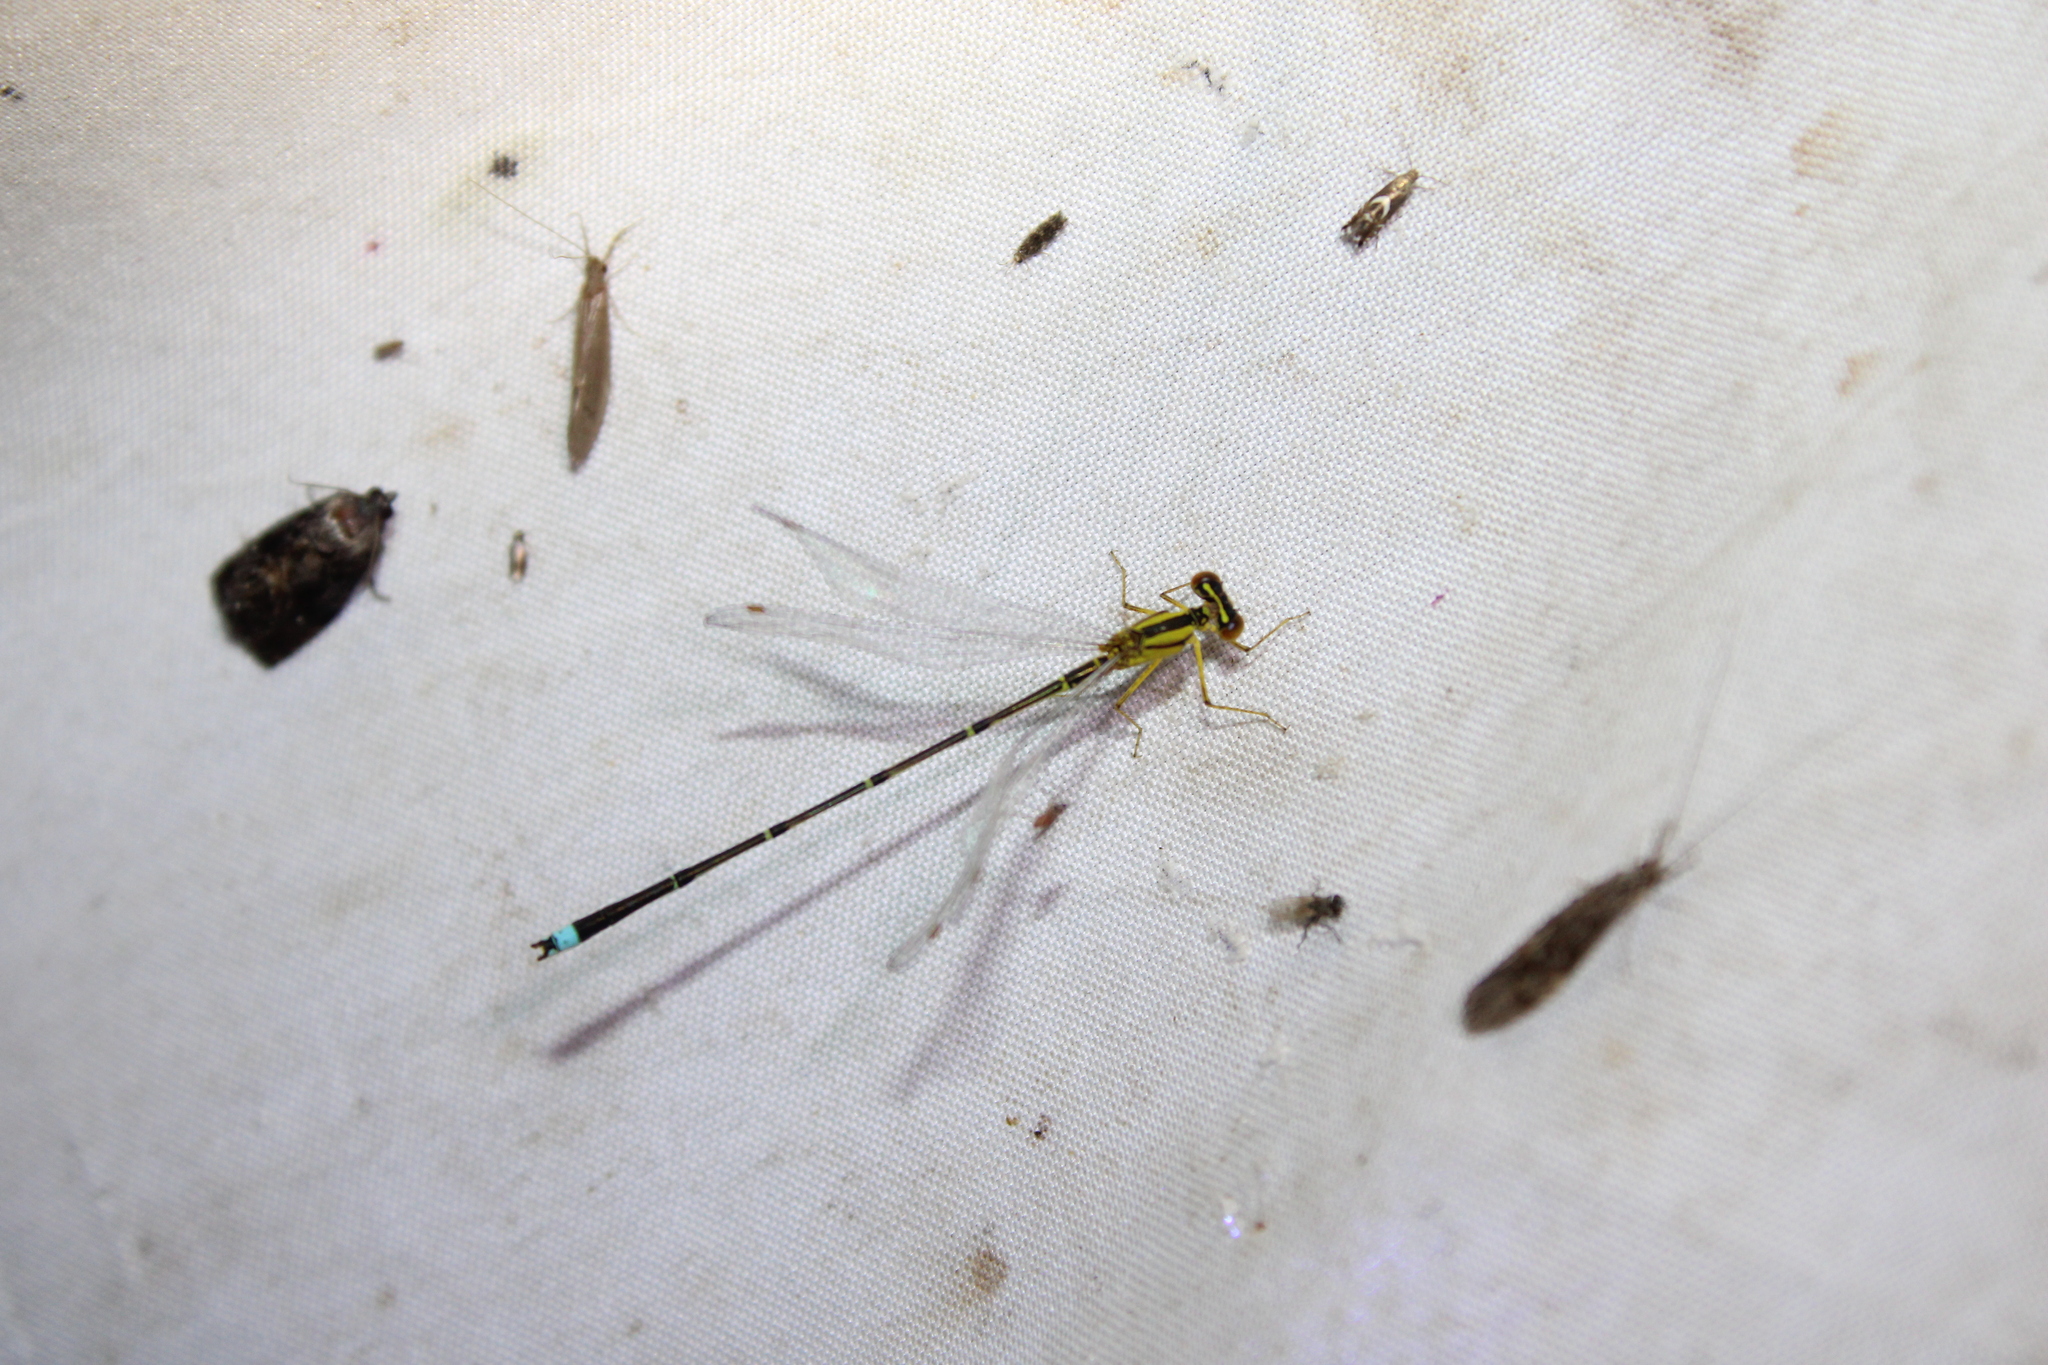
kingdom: Animalia
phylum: Arthropoda
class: Insecta
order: Odonata
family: Coenagrionidae
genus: Enallagma
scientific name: Enallagma vesperum
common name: Vesper bluet
